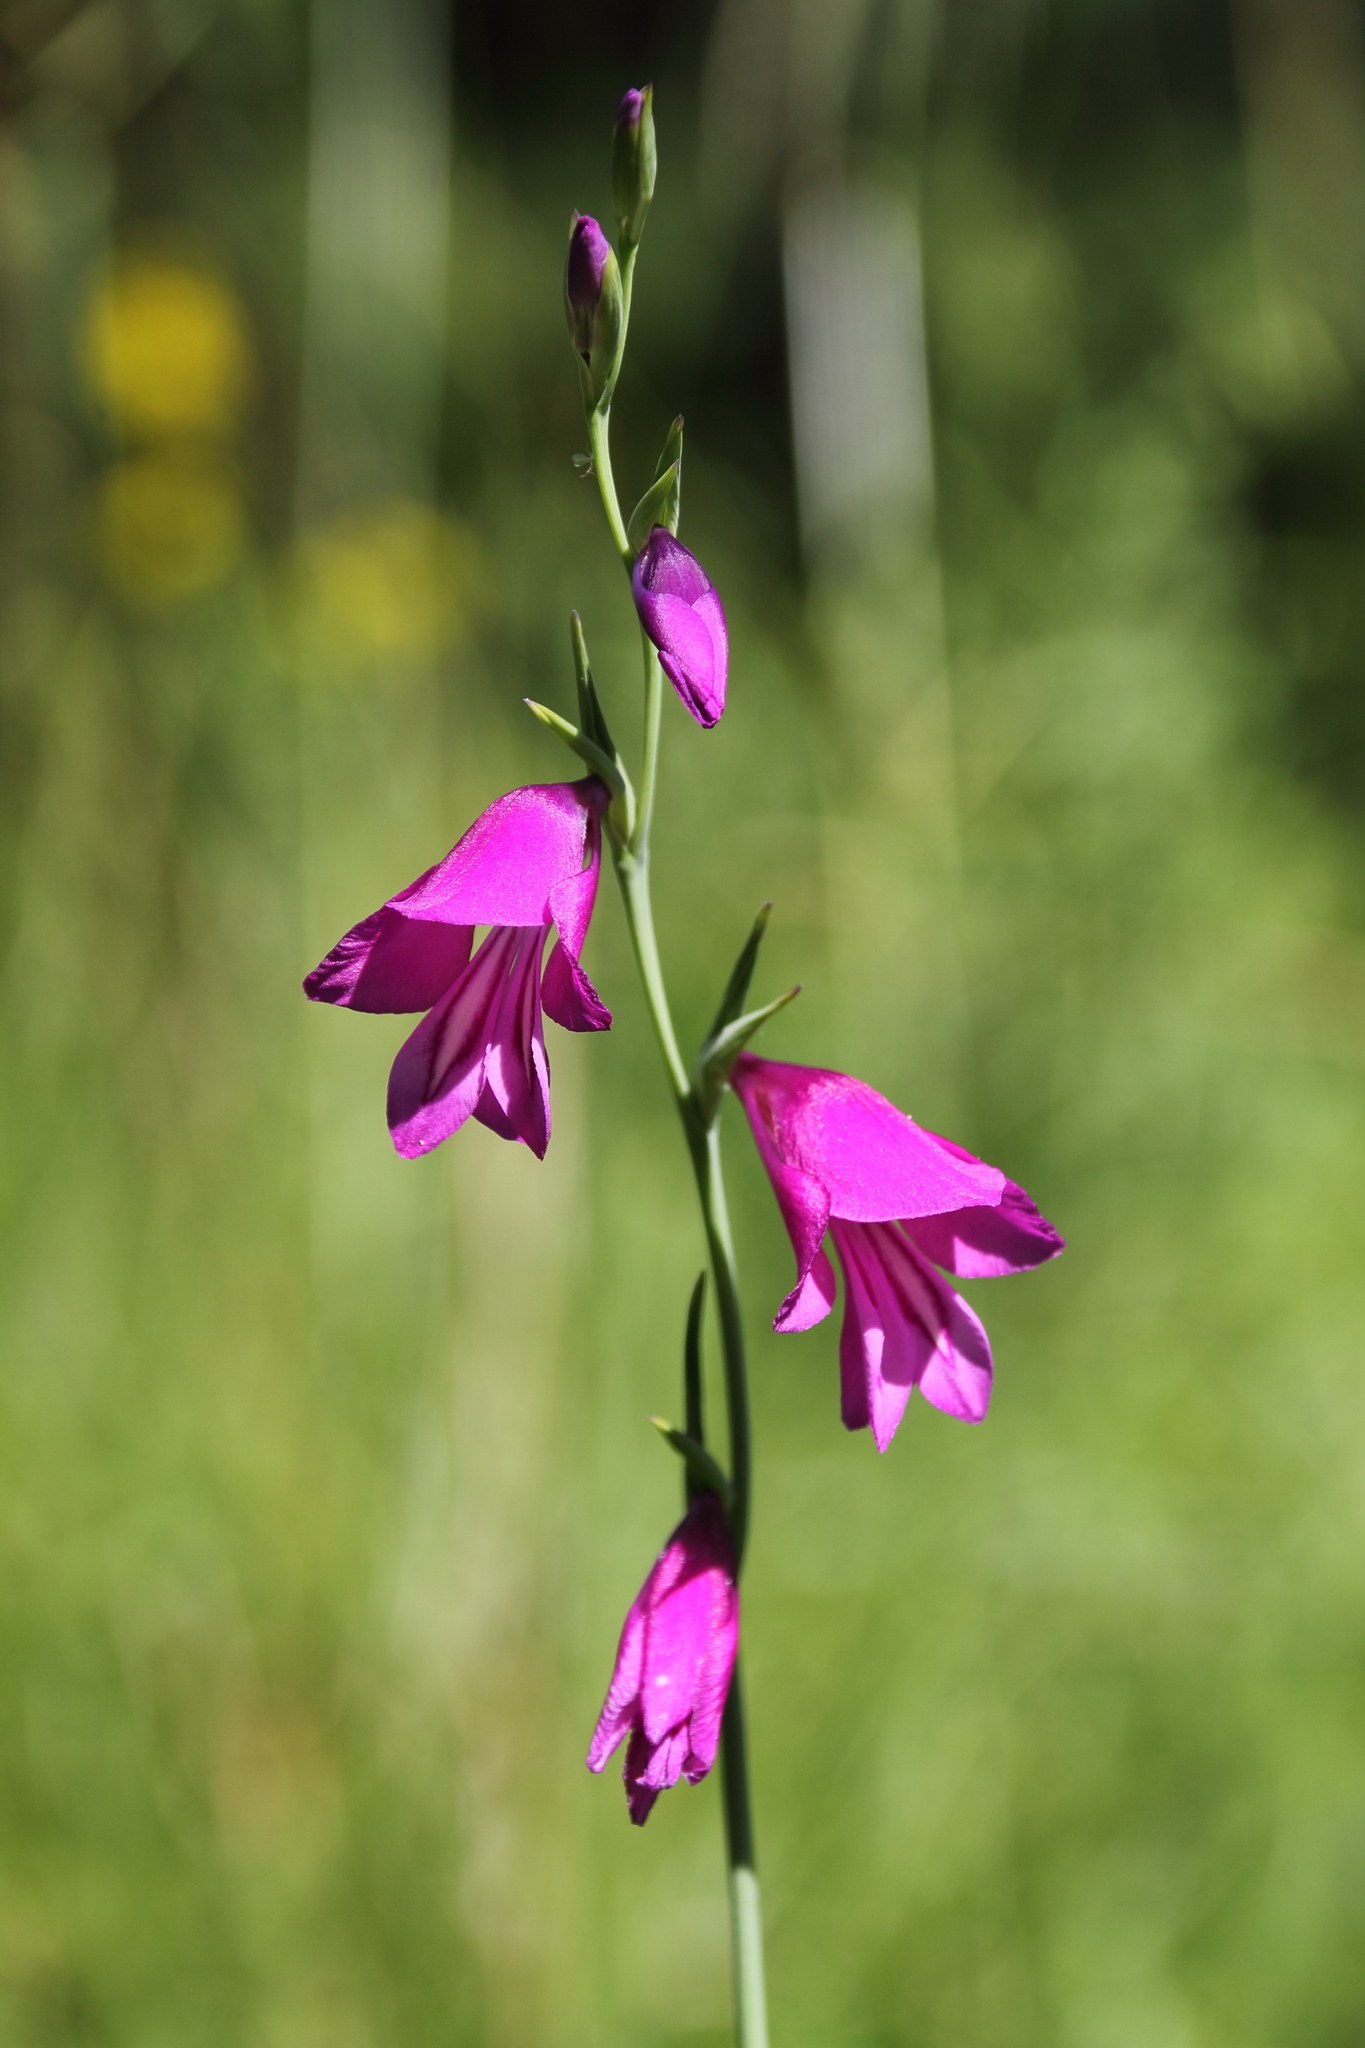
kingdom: Plantae
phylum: Tracheophyta
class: Liliopsida
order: Asparagales
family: Iridaceae
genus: Gladiolus
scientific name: Gladiolus palustris
